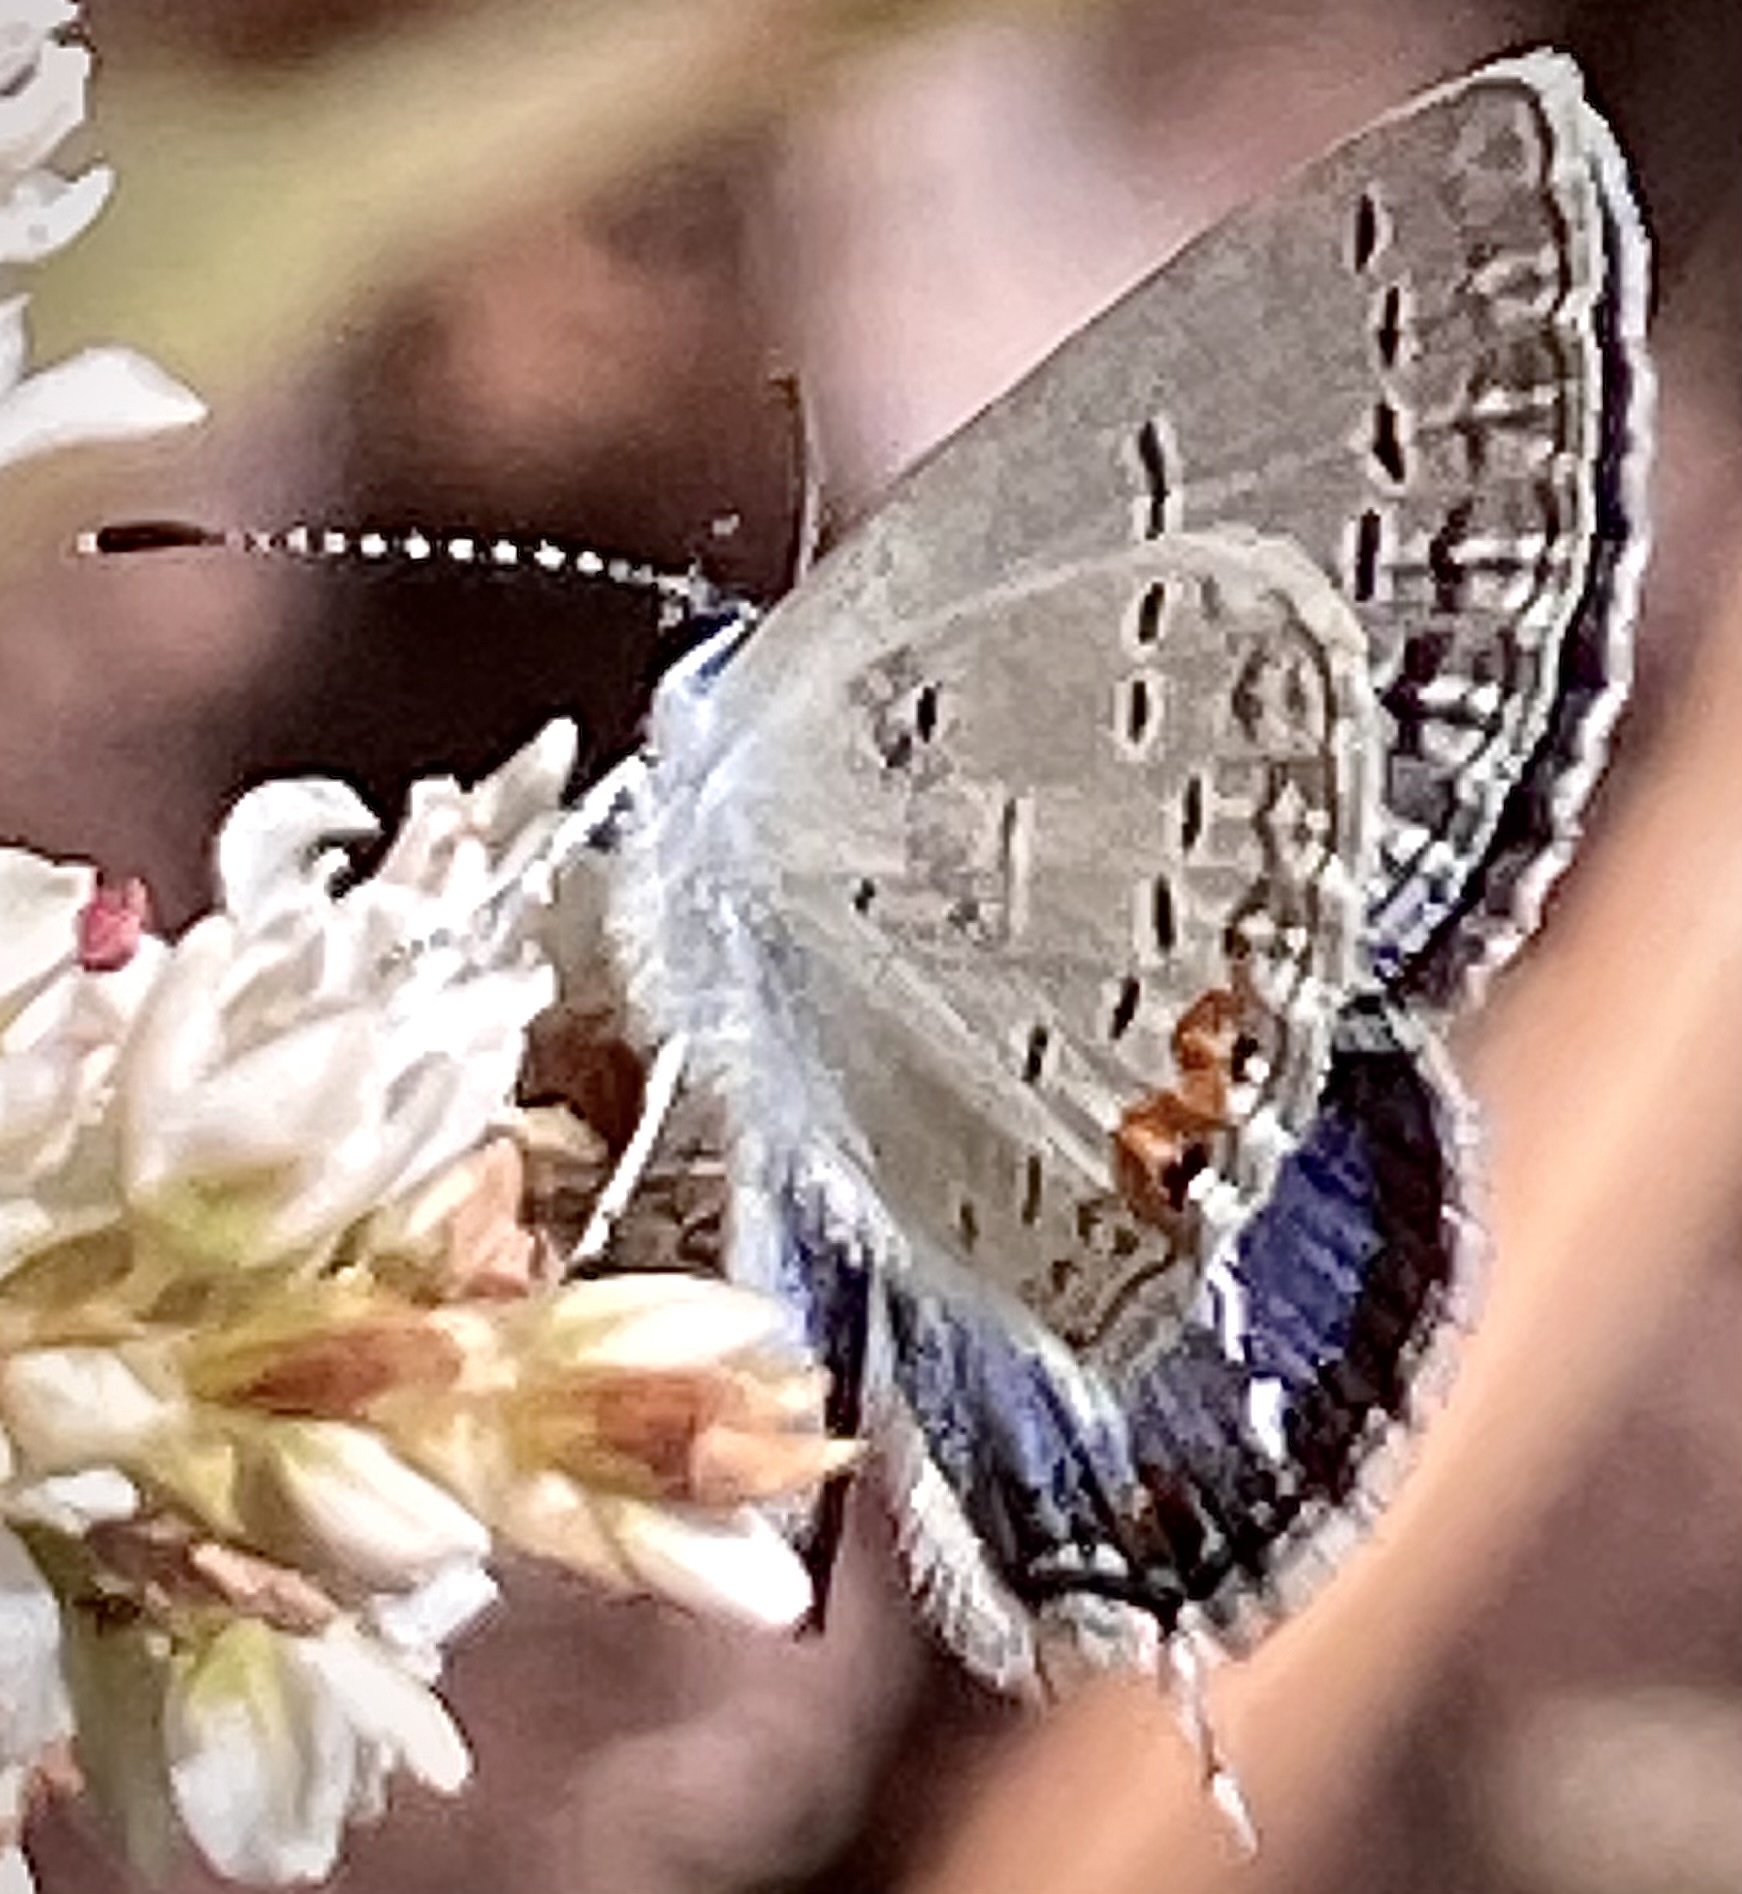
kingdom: Animalia
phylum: Arthropoda
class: Insecta
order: Lepidoptera
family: Lycaenidae
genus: Elkalyce
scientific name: Elkalyce comyntas
